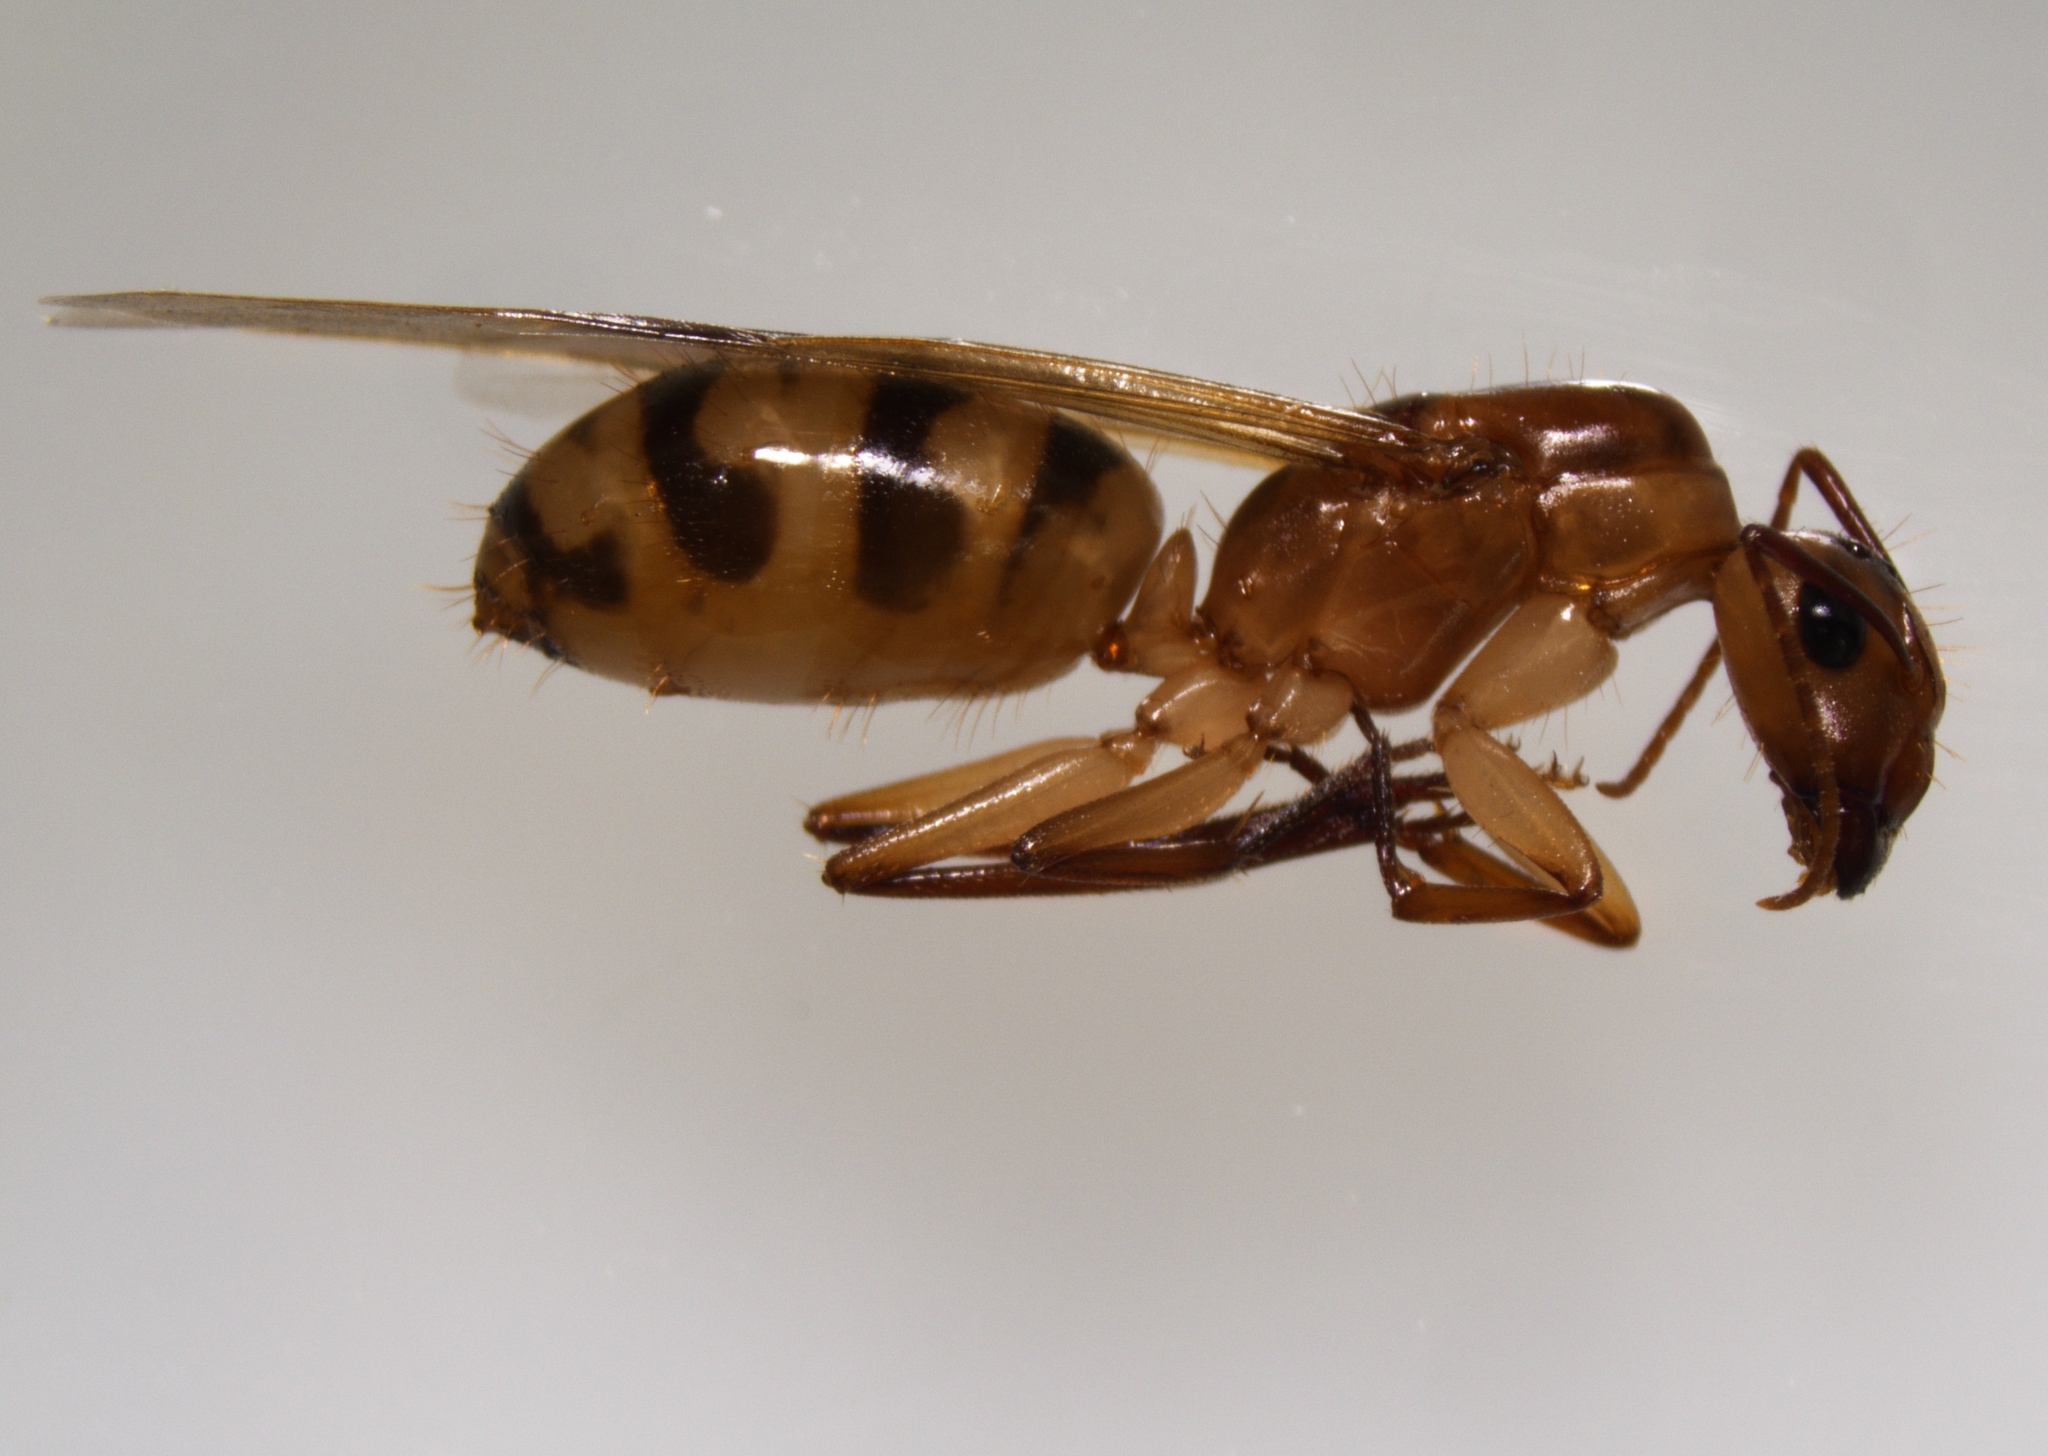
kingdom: Animalia
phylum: Arthropoda
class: Insecta
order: Hymenoptera
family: Formicidae
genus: Camponotus
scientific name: Camponotus
